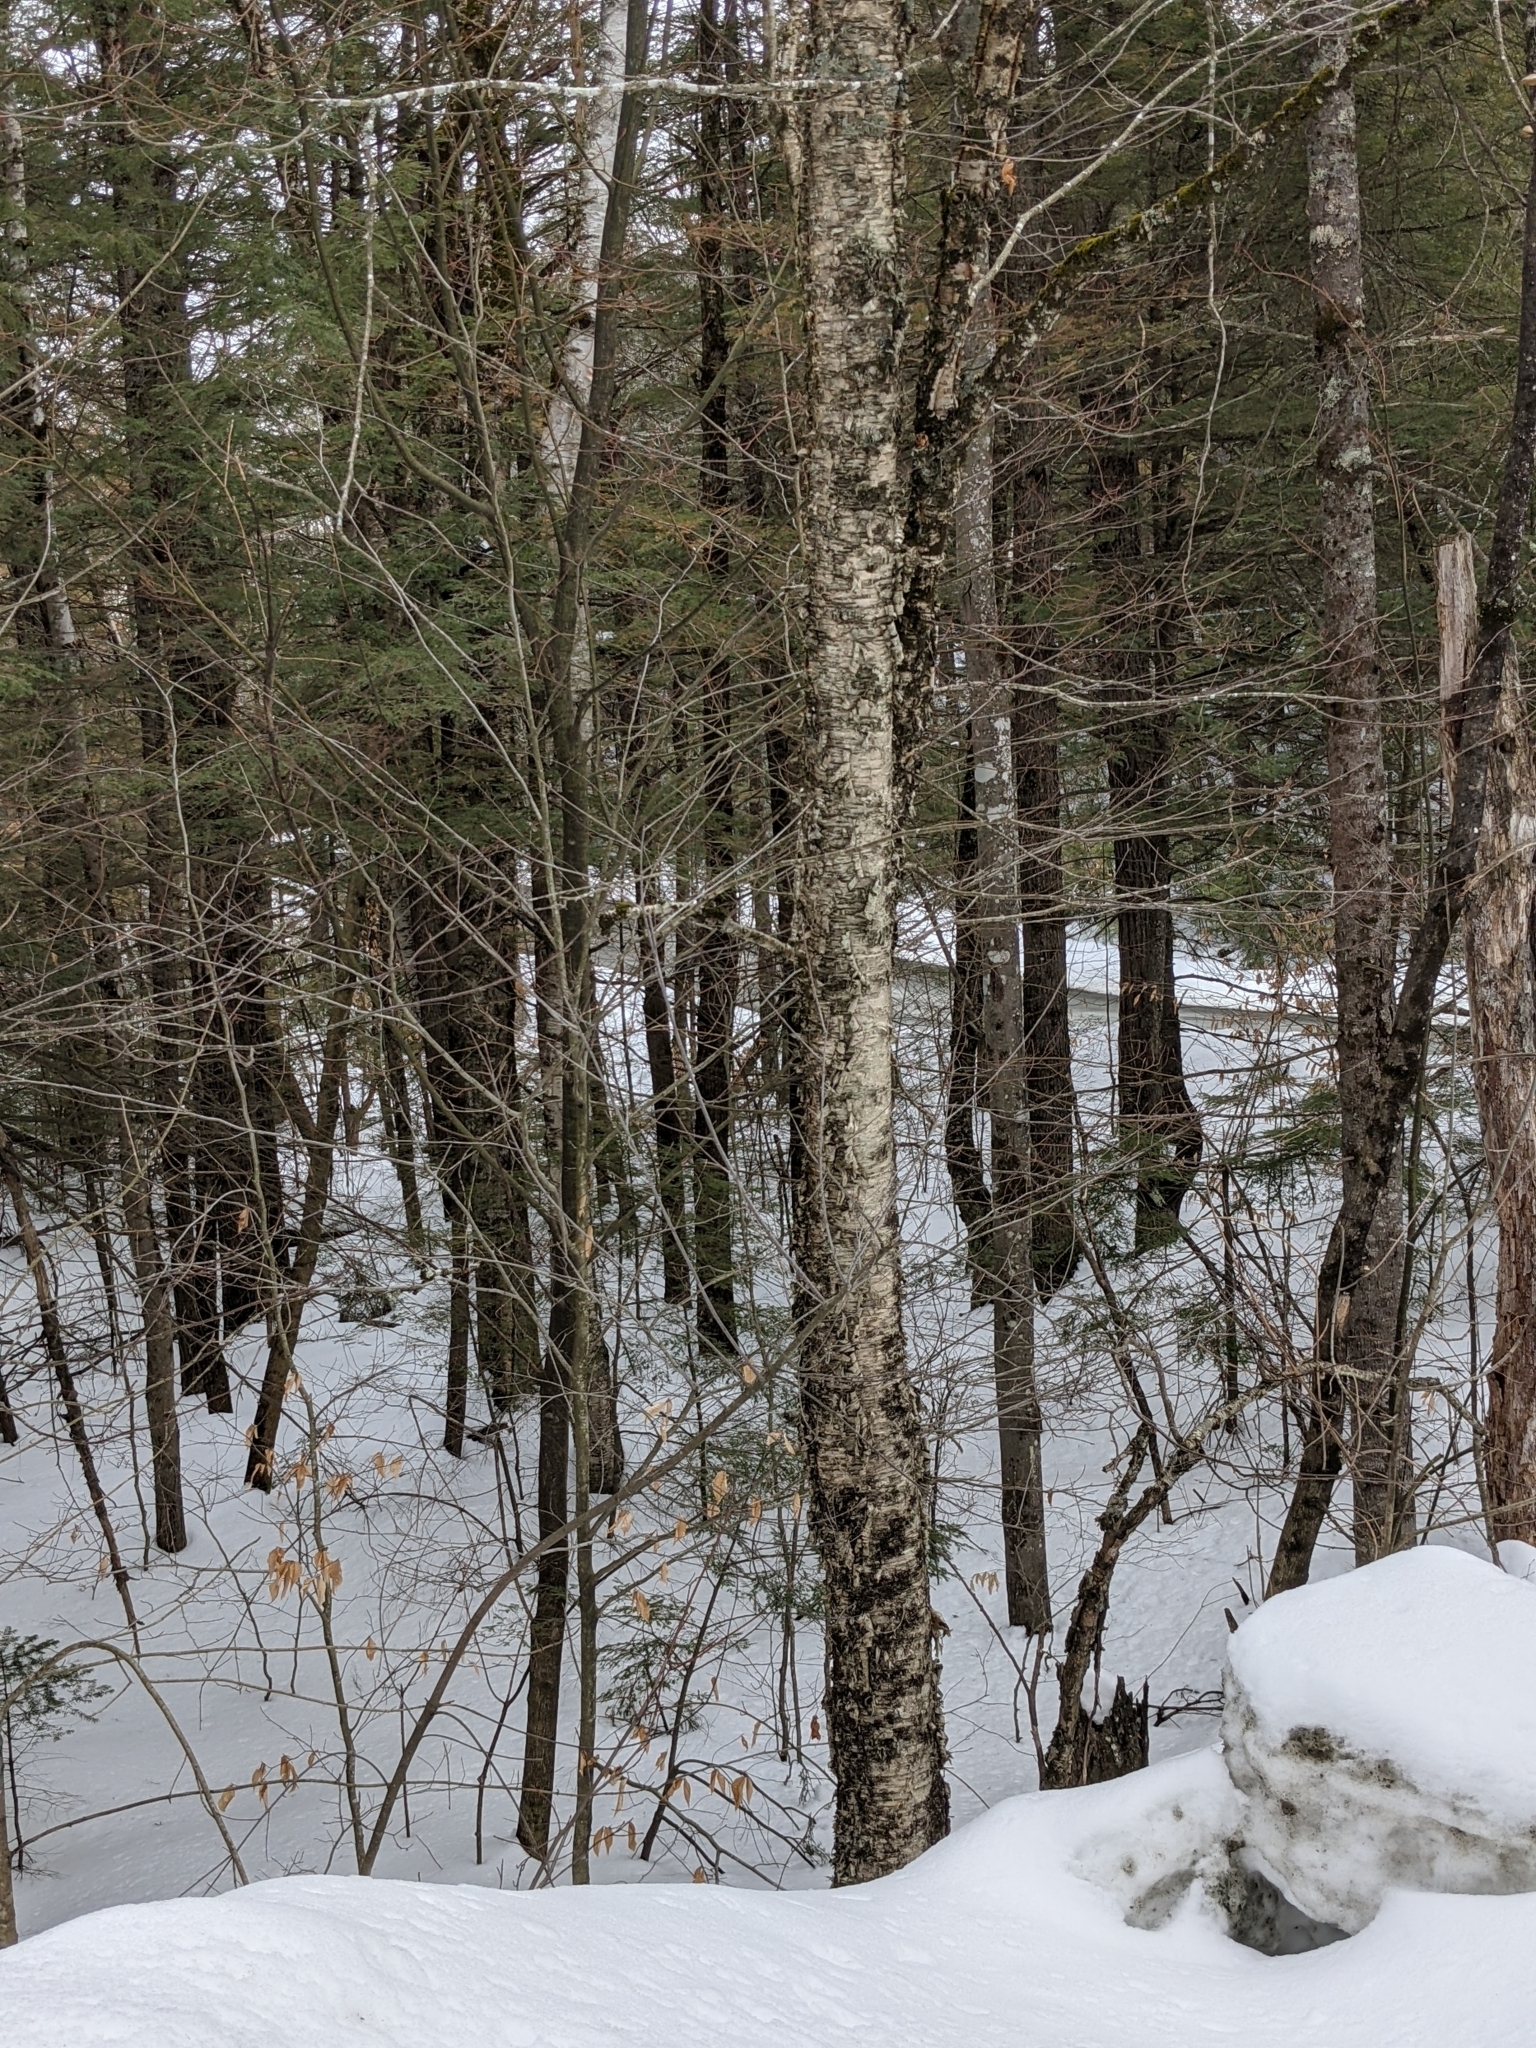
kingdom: Plantae
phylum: Tracheophyta
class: Magnoliopsida
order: Fagales
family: Betulaceae
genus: Betula
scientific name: Betula alleghaniensis
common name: Yellow birch
